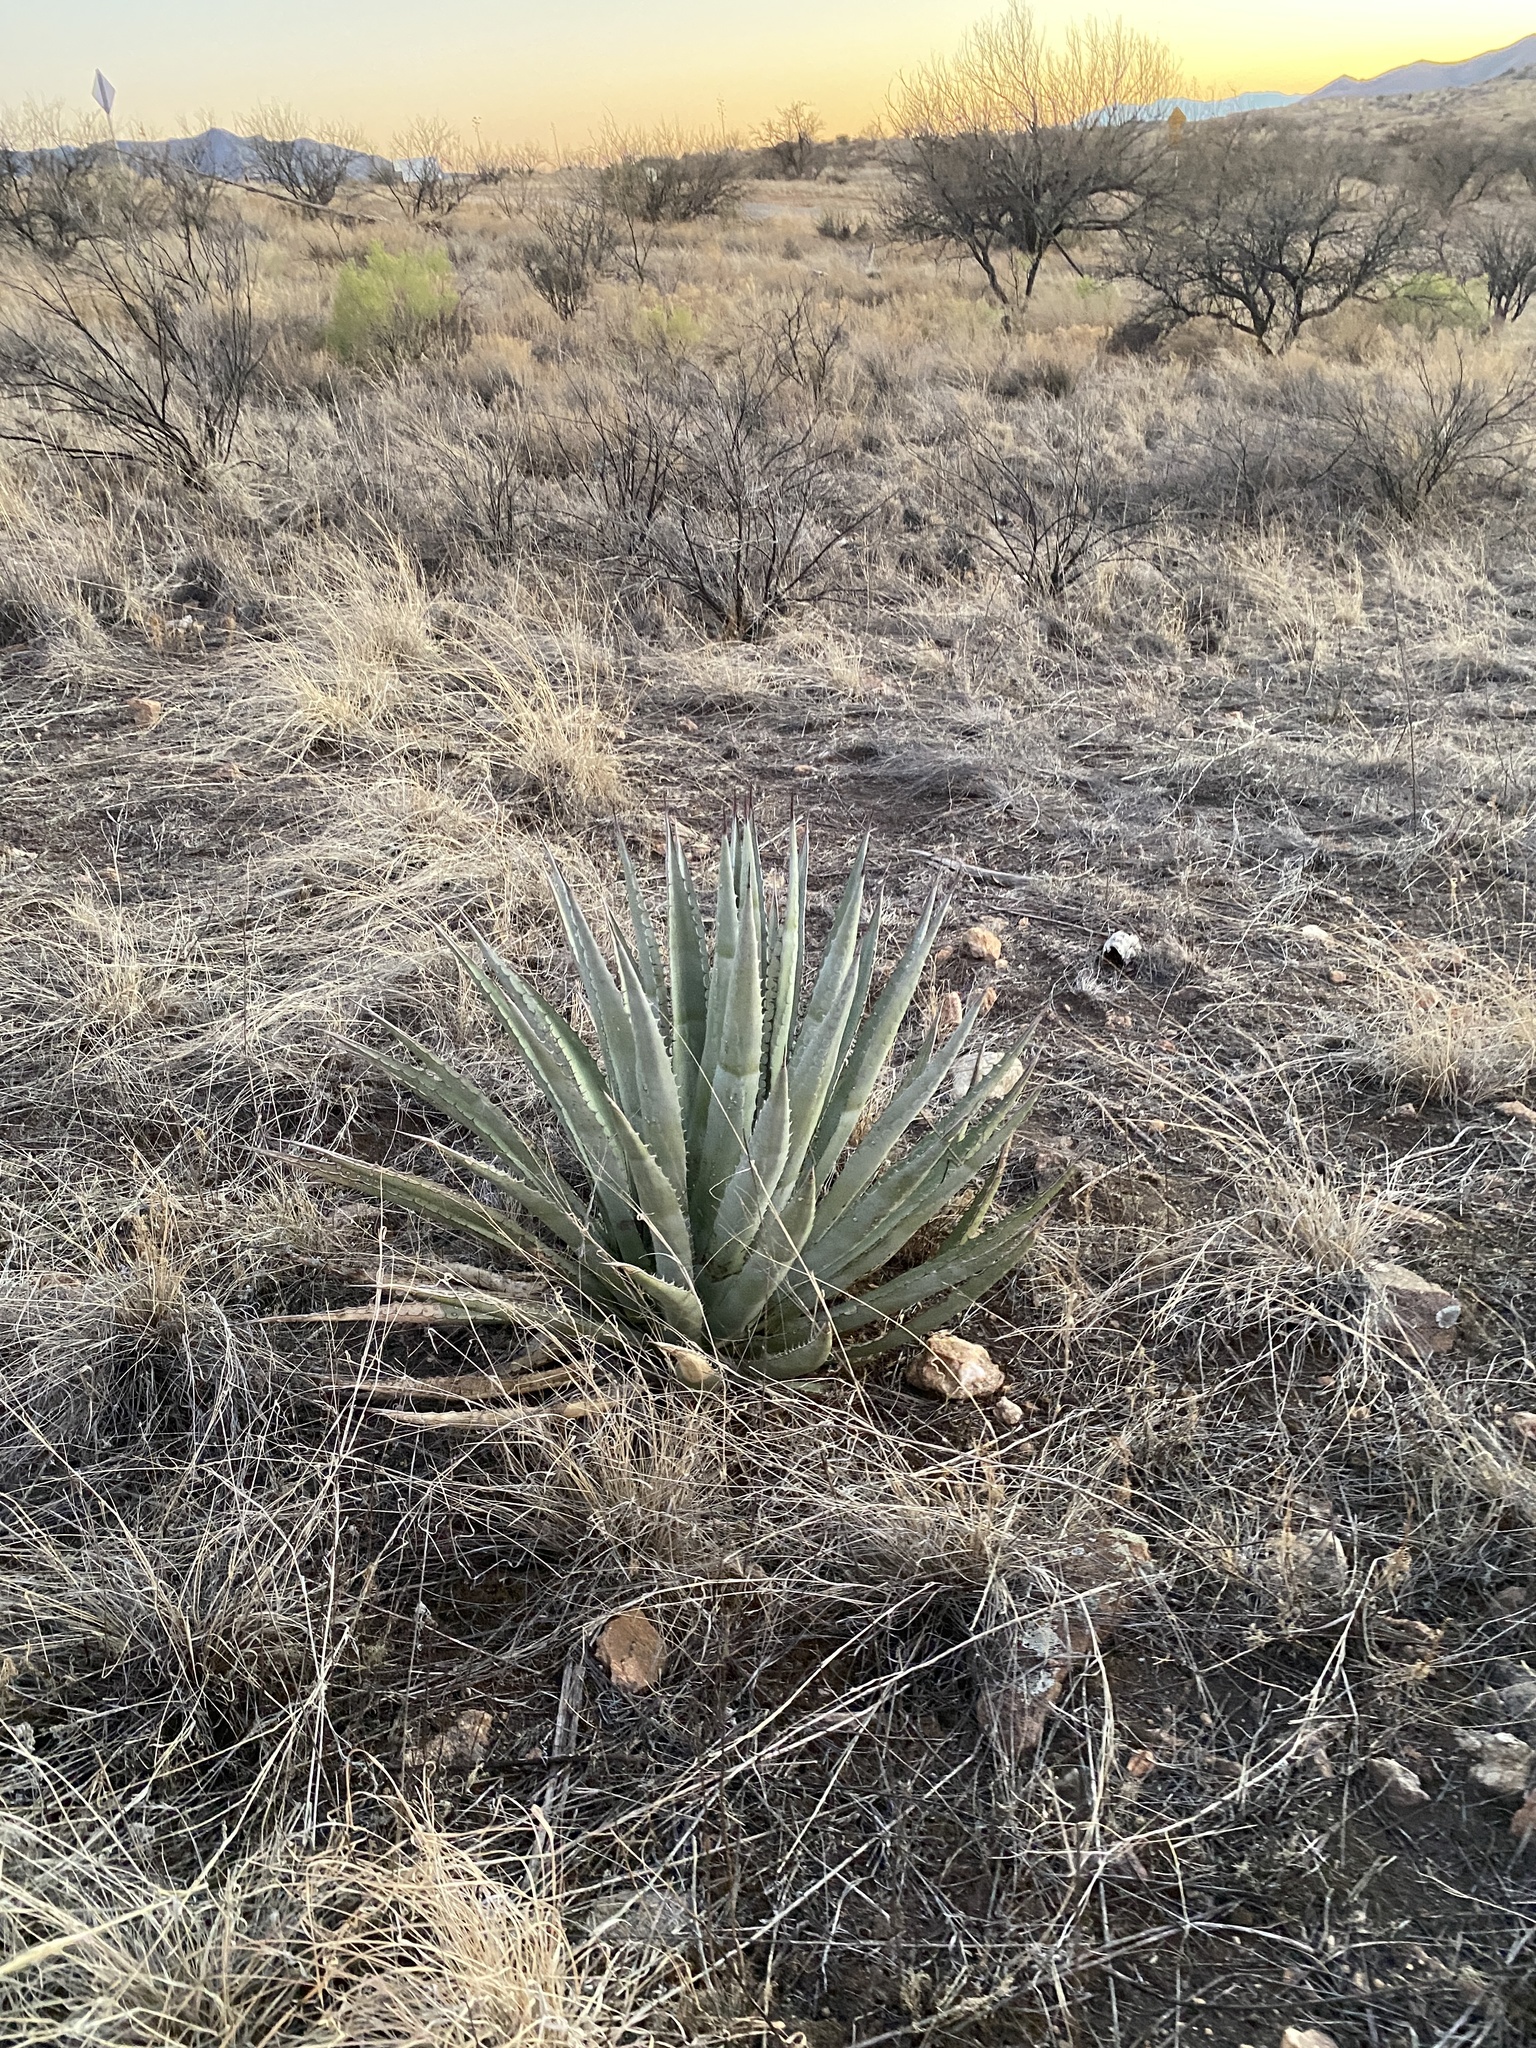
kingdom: Plantae
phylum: Tracheophyta
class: Liliopsida
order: Asparagales
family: Asparagaceae
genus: Agave
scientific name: Agave palmeri
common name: Palmer agave
